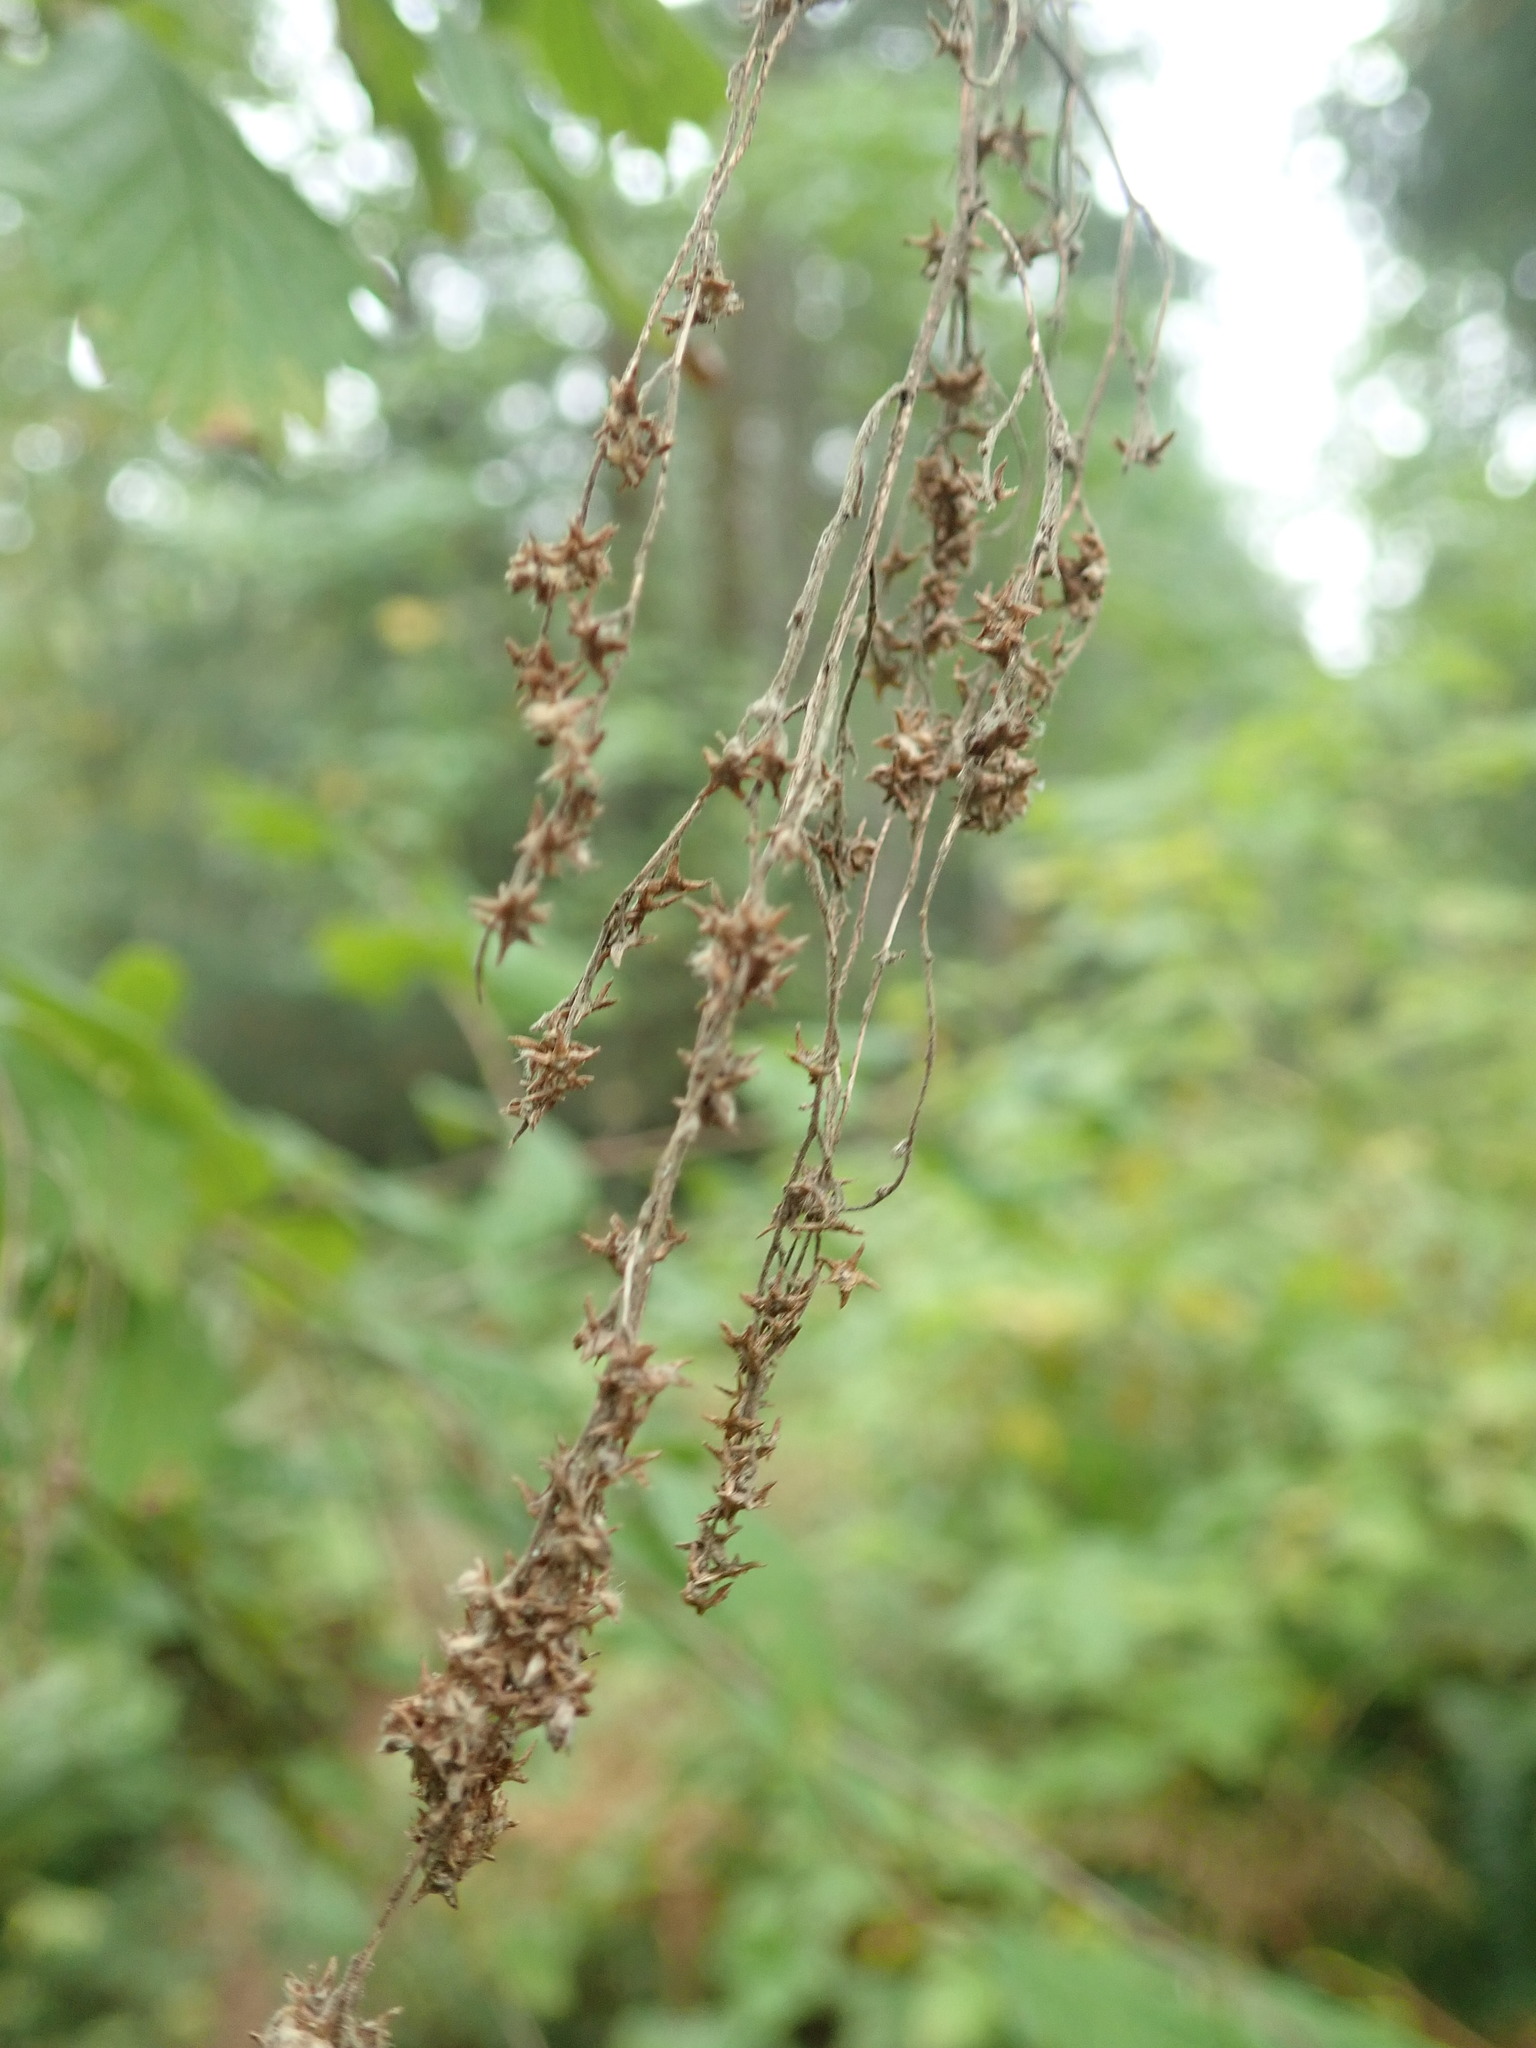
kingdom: Plantae
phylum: Tracheophyta
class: Magnoliopsida
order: Rosales
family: Rosaceae
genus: Holodiscus
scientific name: Holodiscus discolor
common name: Oceanspray
